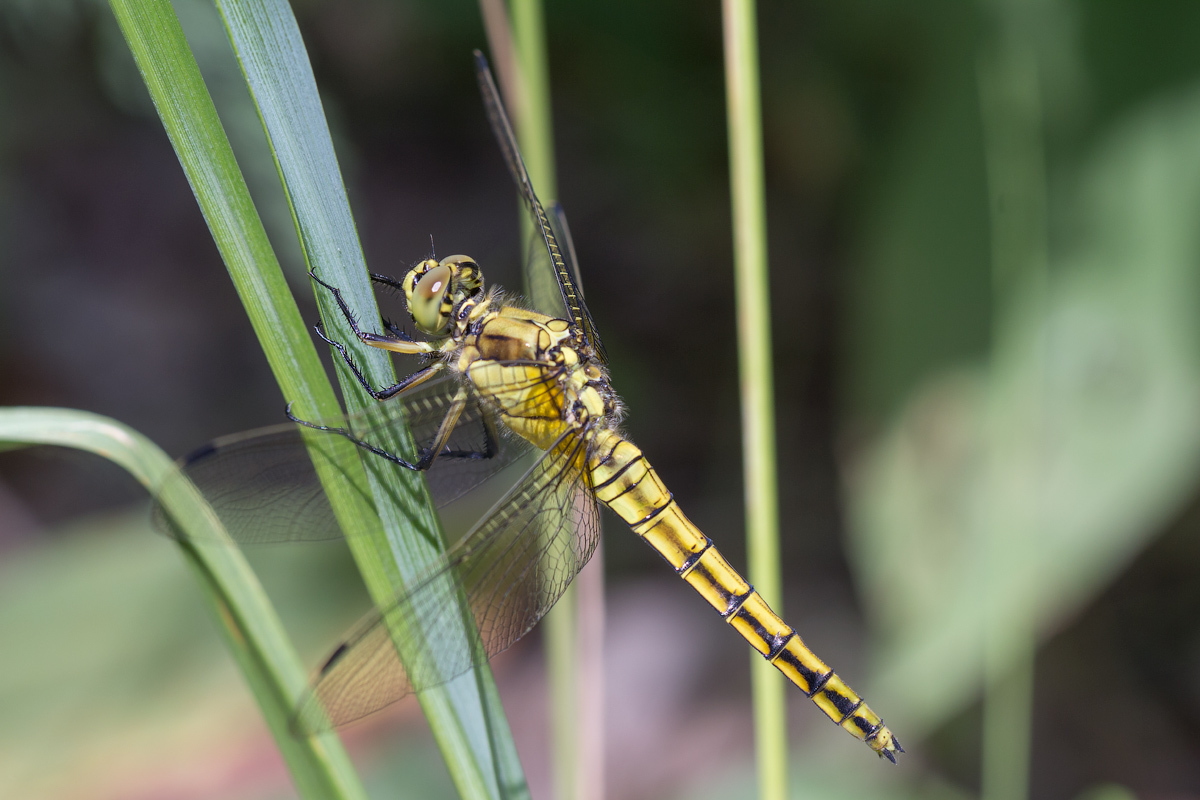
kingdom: Animalia
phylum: Arthropoda
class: Insecta
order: Odonata
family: Libellulidae
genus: Orthetrum
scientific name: Orthetrum cancellatum
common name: Black-tailed skimmer
